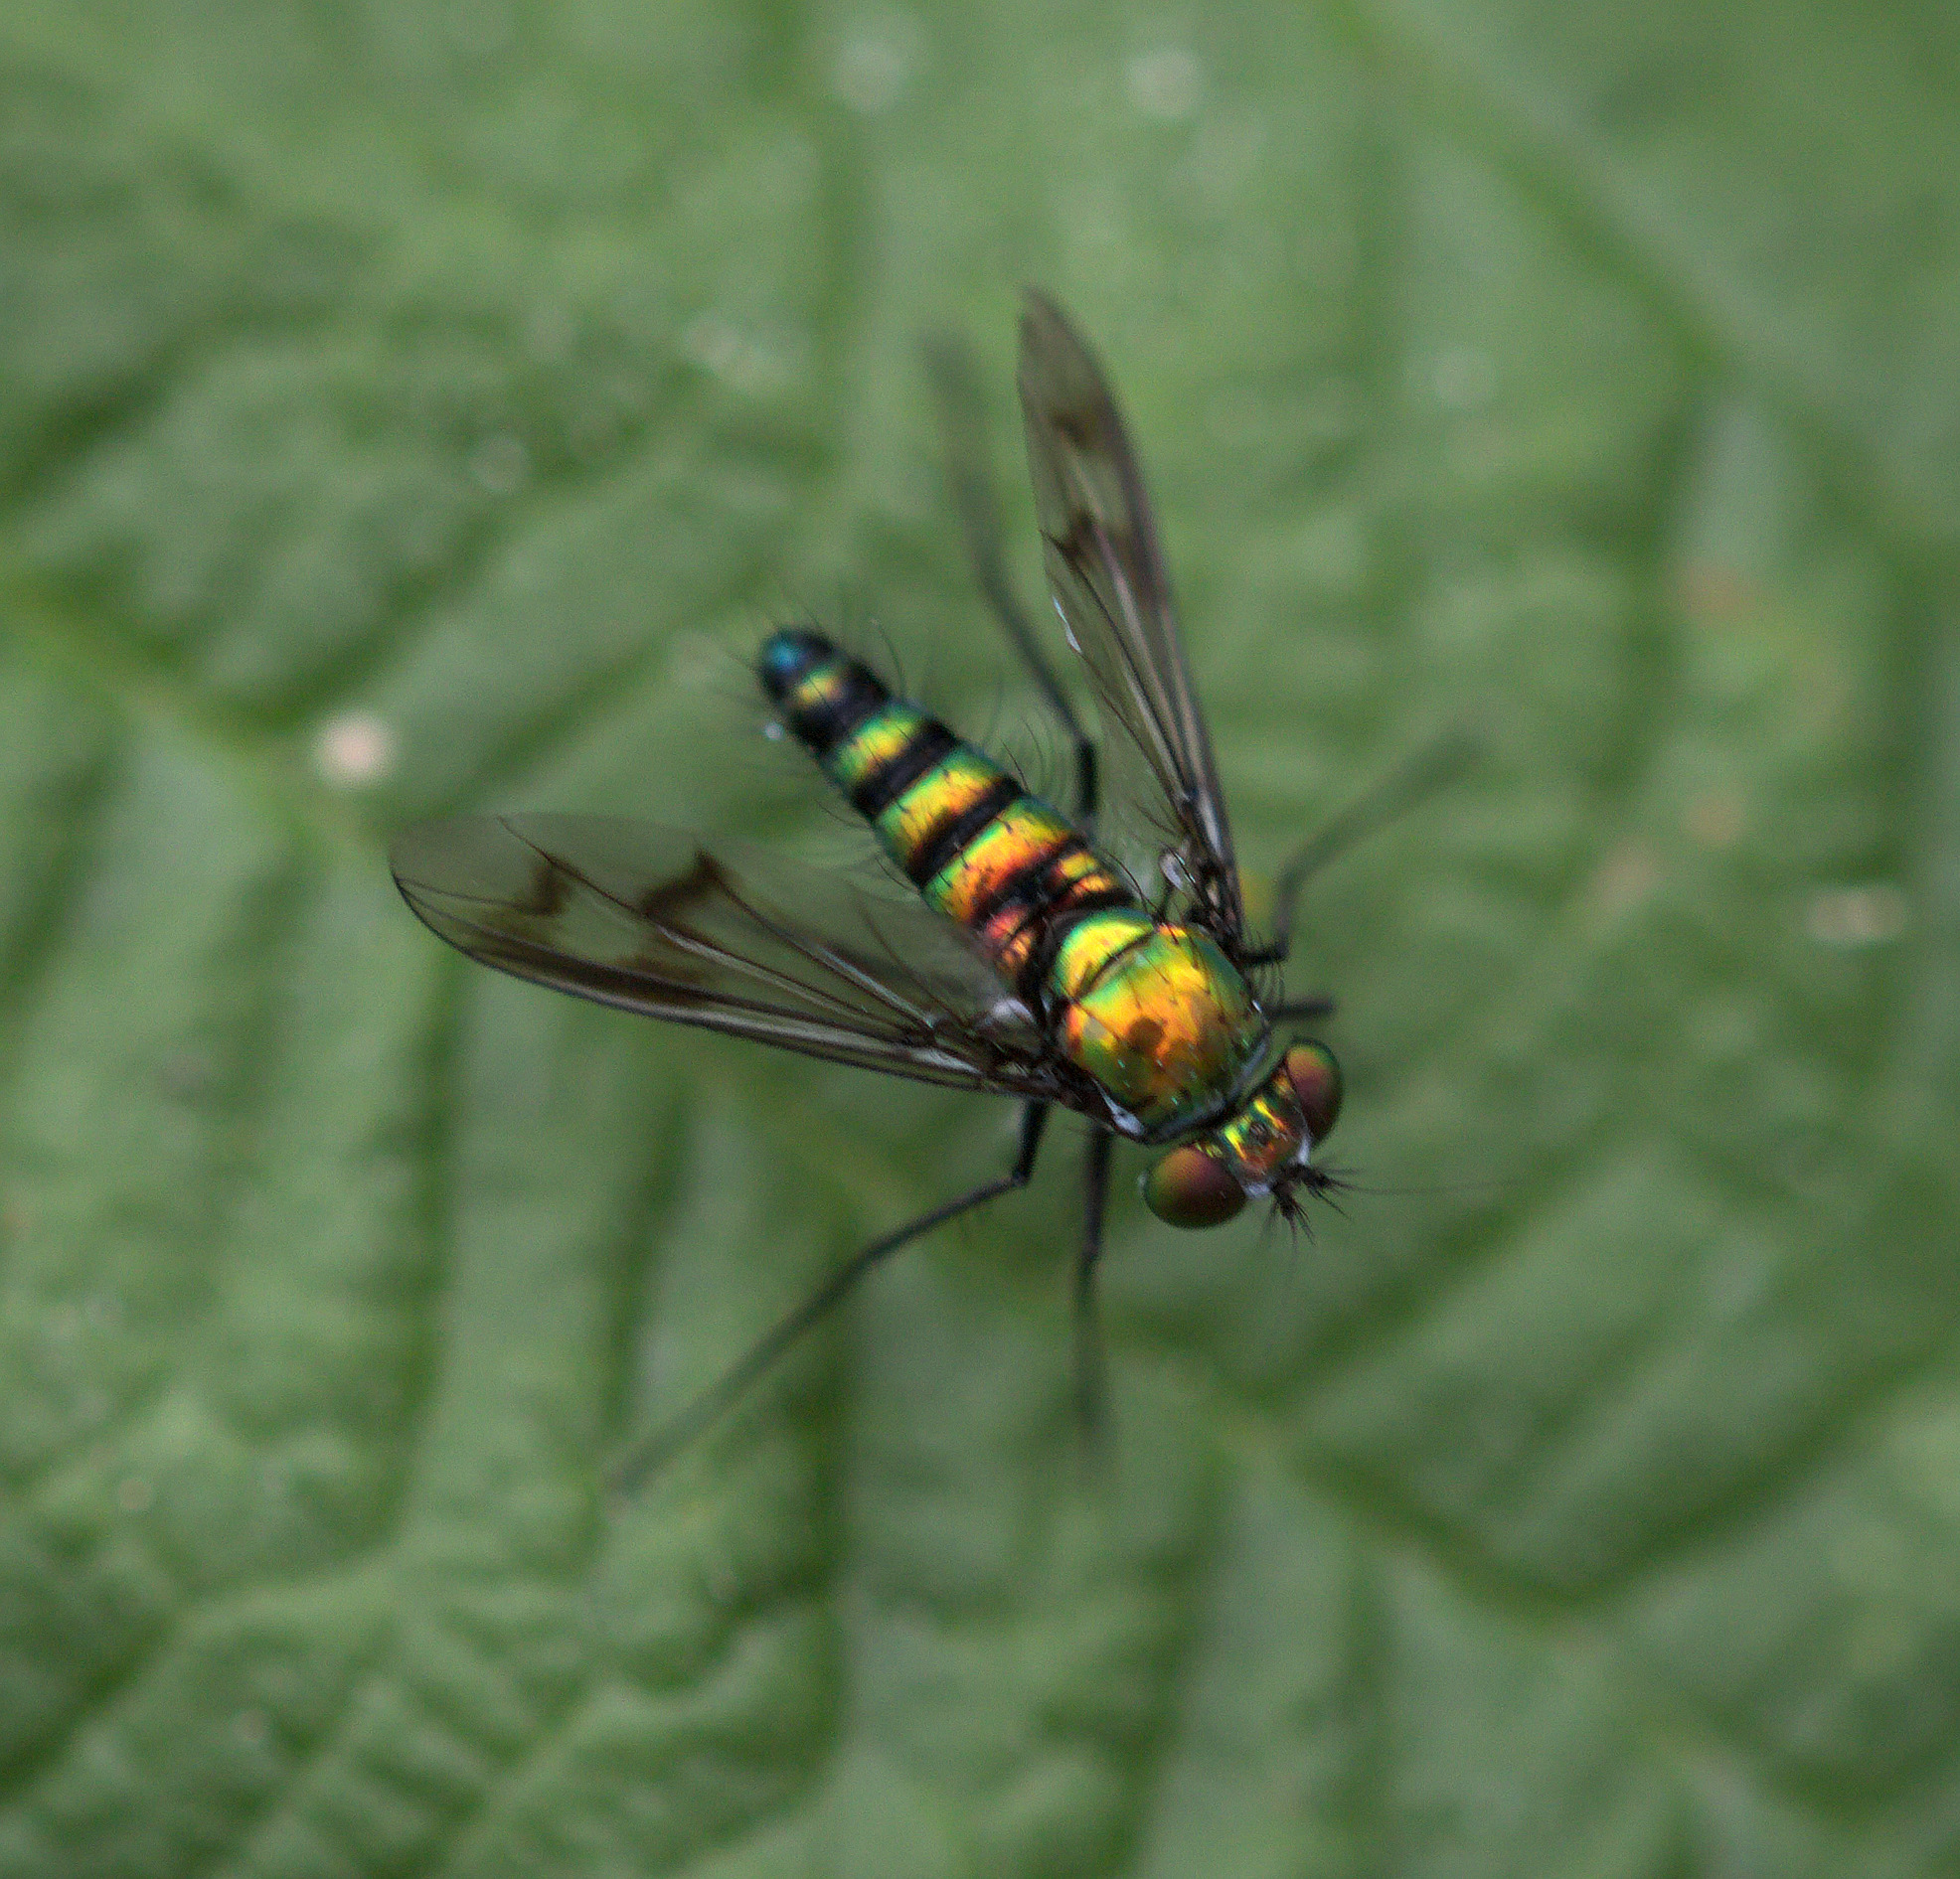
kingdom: Animalia
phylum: Arthropoda
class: Insecta
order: Diptera
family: Dolichopodidae
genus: Condylostylus
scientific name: Condylostylus occidentalis
